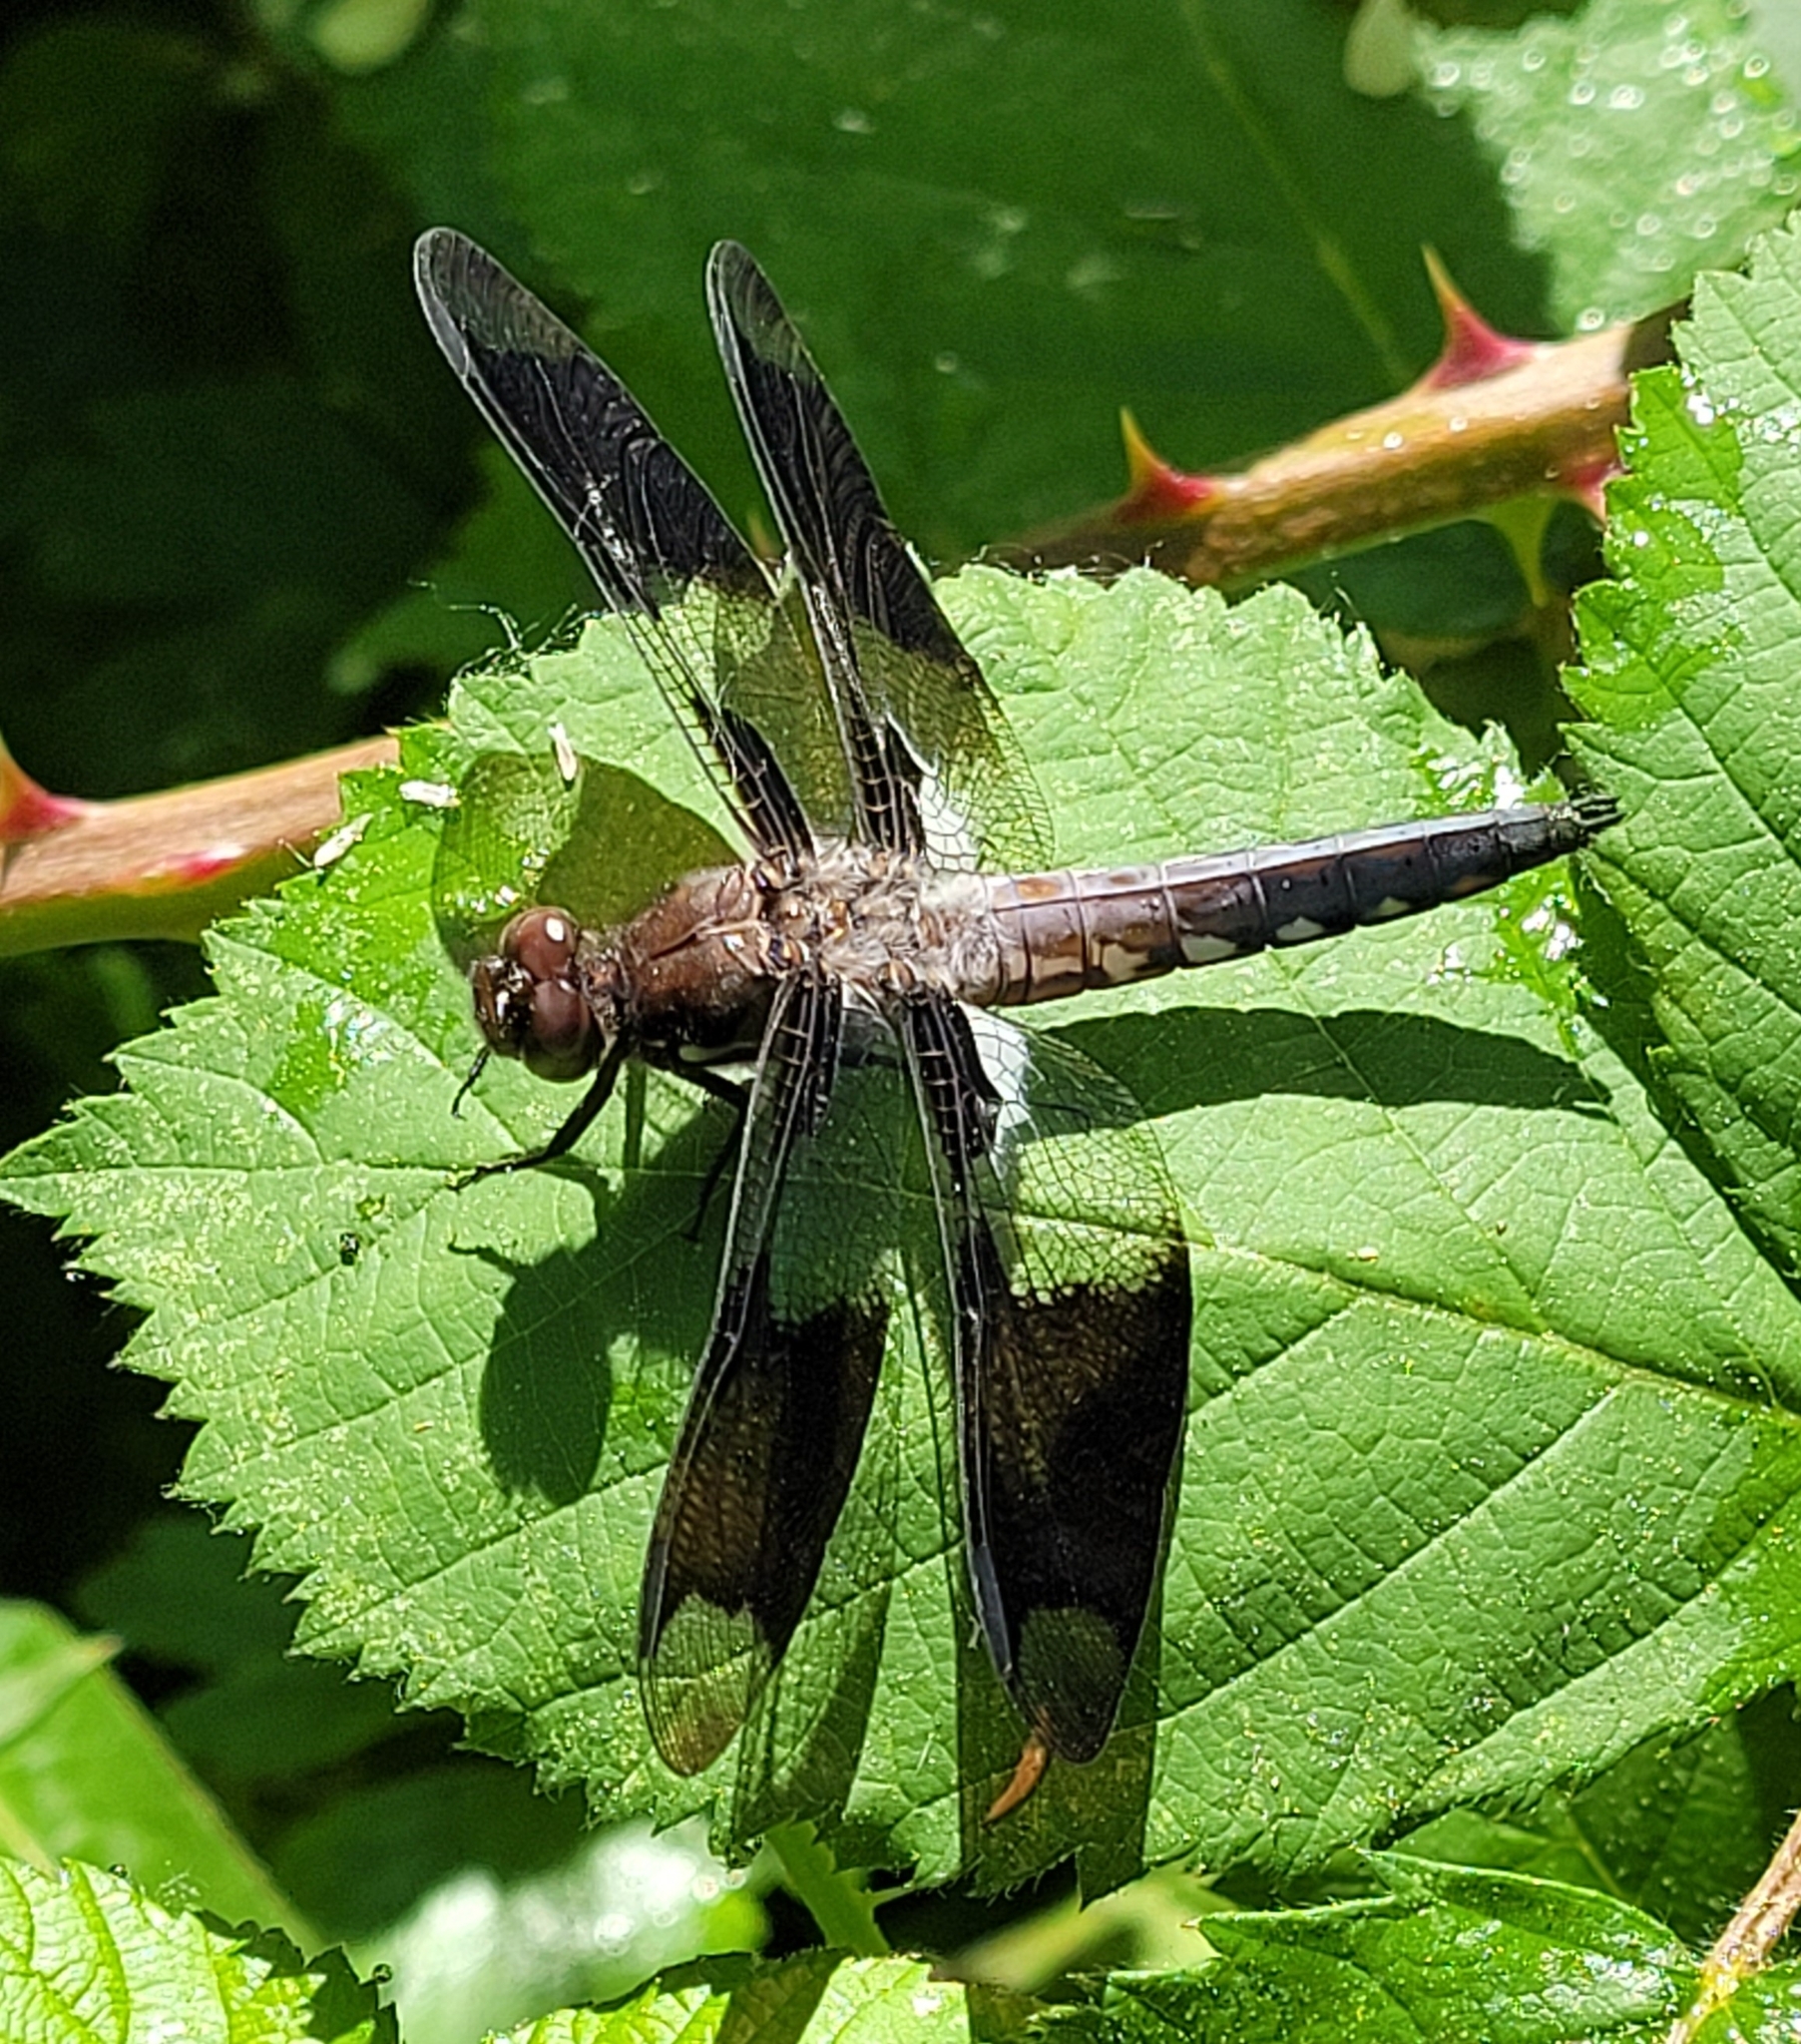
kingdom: Animalia
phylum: Arthropoda
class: Insecta
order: Odonata
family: Libellulidae
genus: Plathemis
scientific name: Plathemis lydia
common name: Common whitetail
